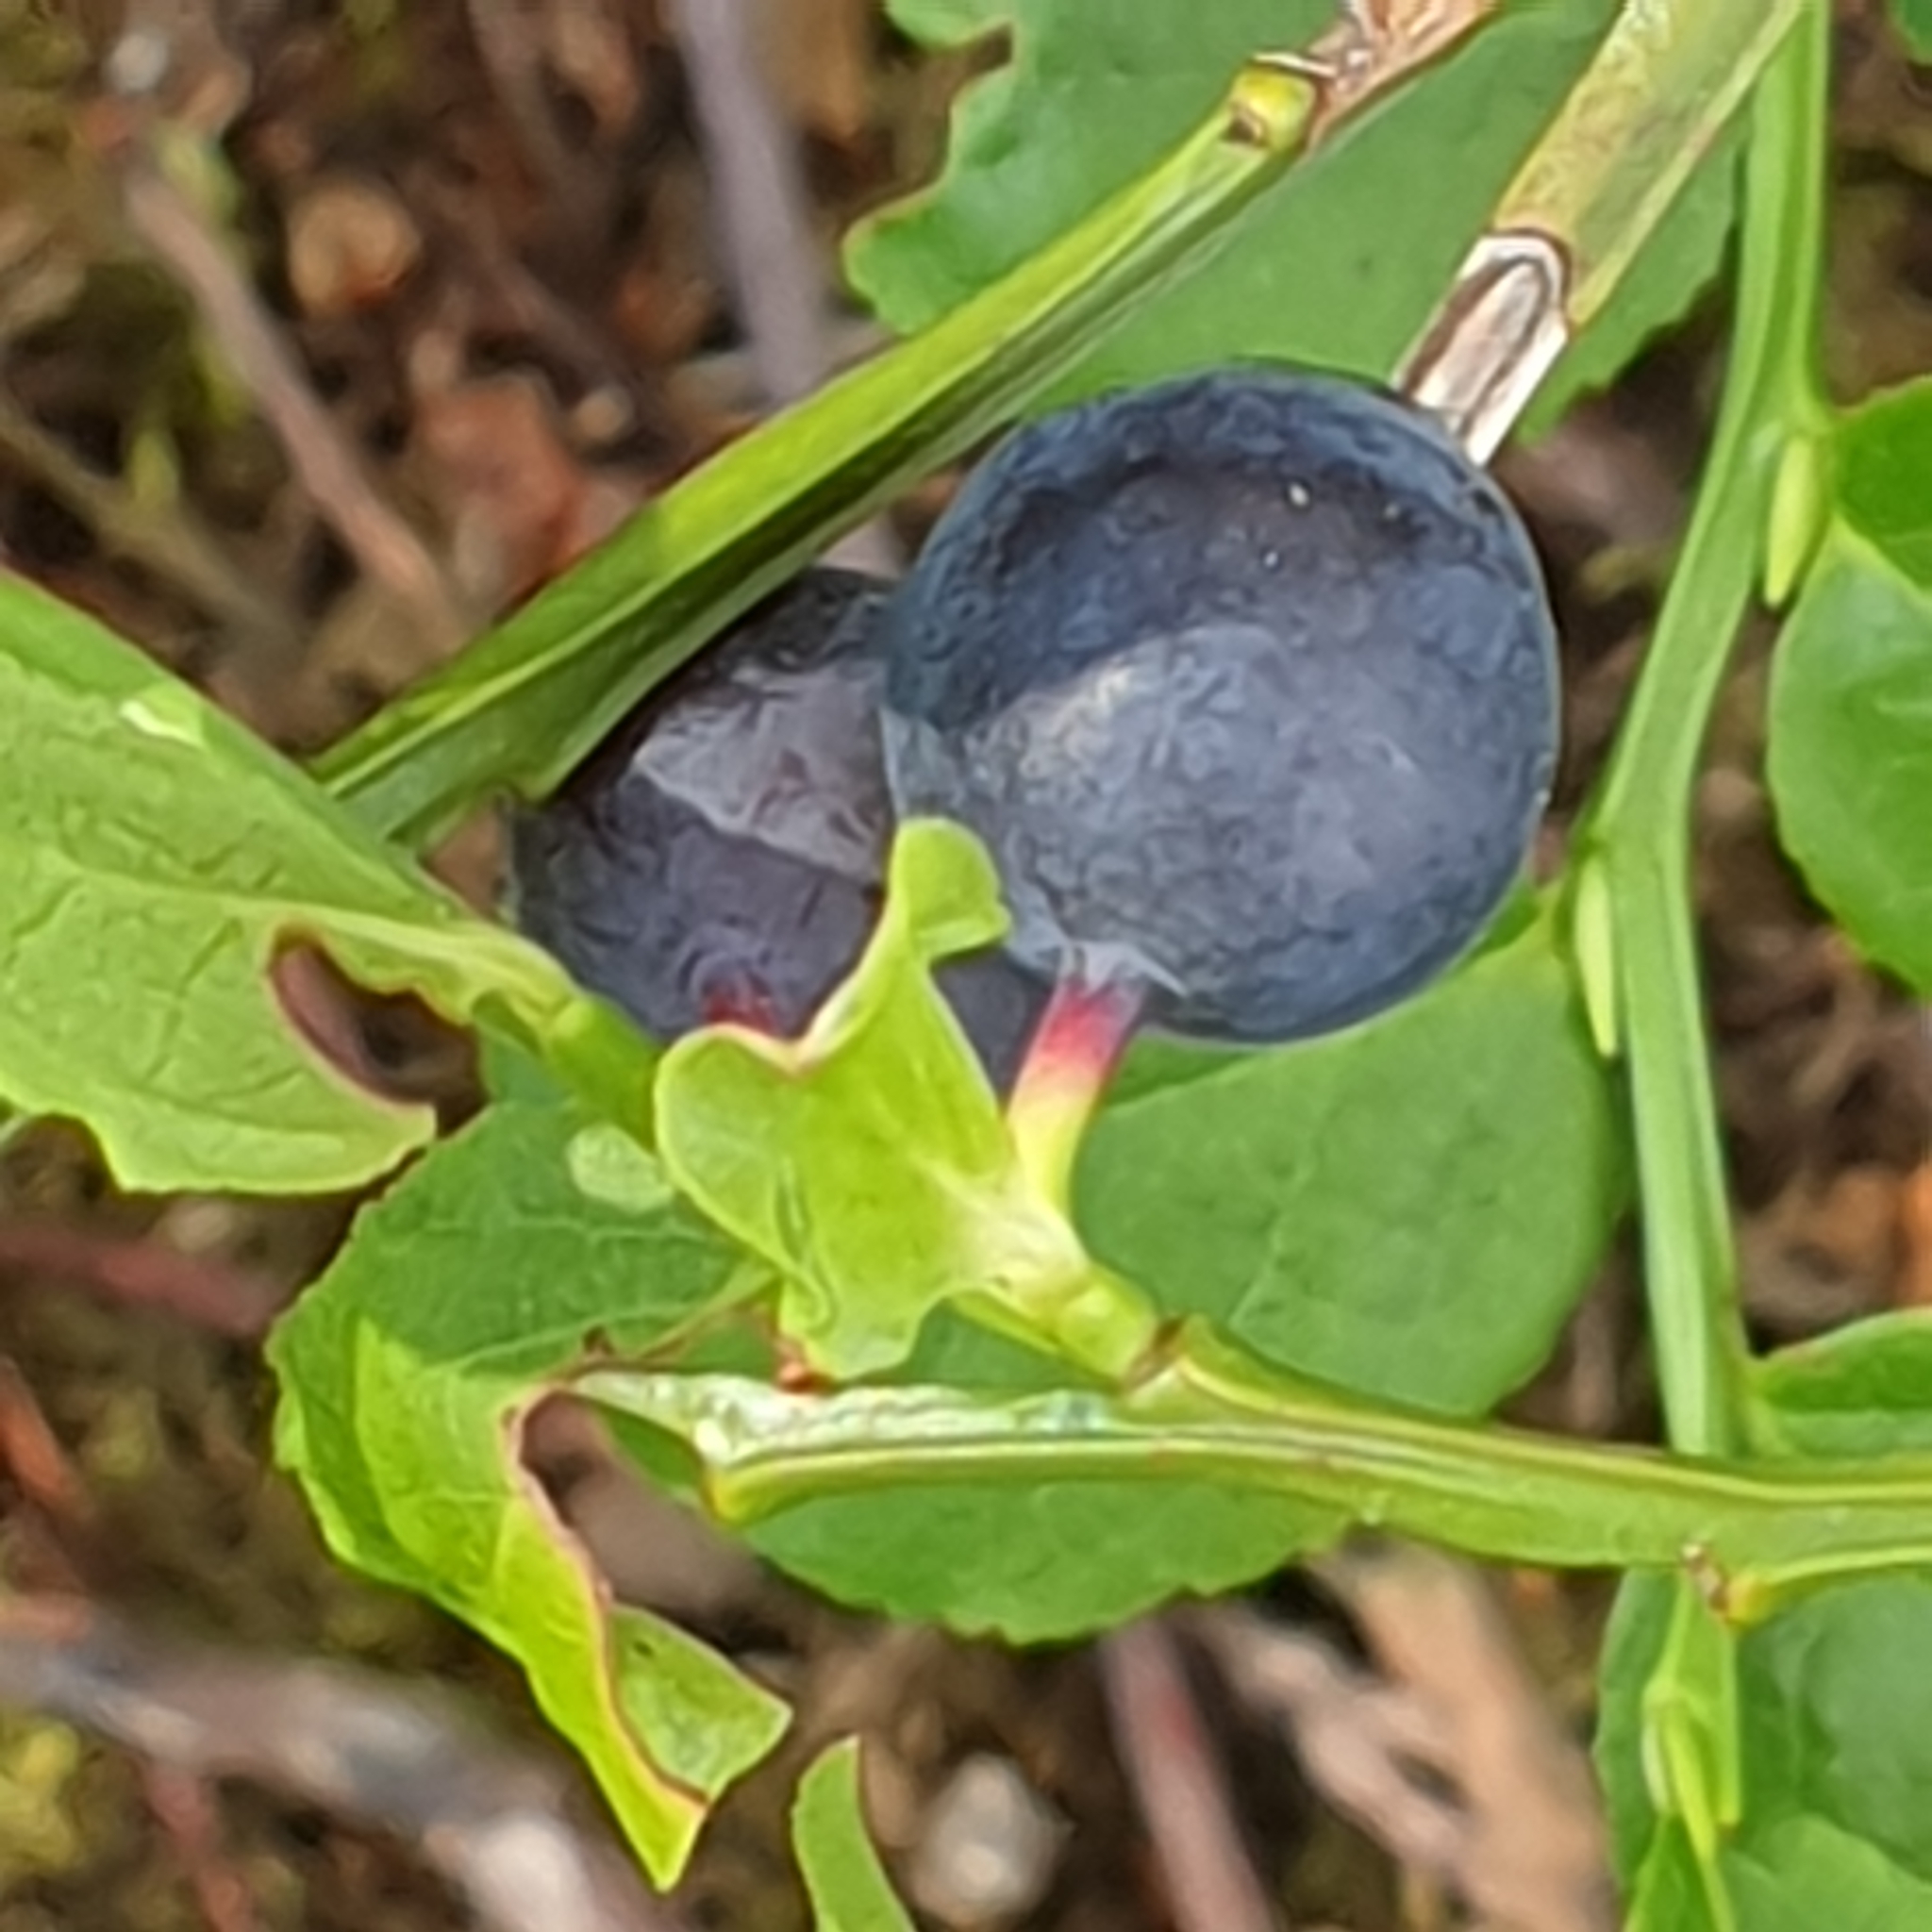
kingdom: Plantae
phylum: Tracheophyta
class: Magnoliopsida
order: Ericales
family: Ericaceae
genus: Vaccinium
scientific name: Vaccinium myrtillus
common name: Bilberry
